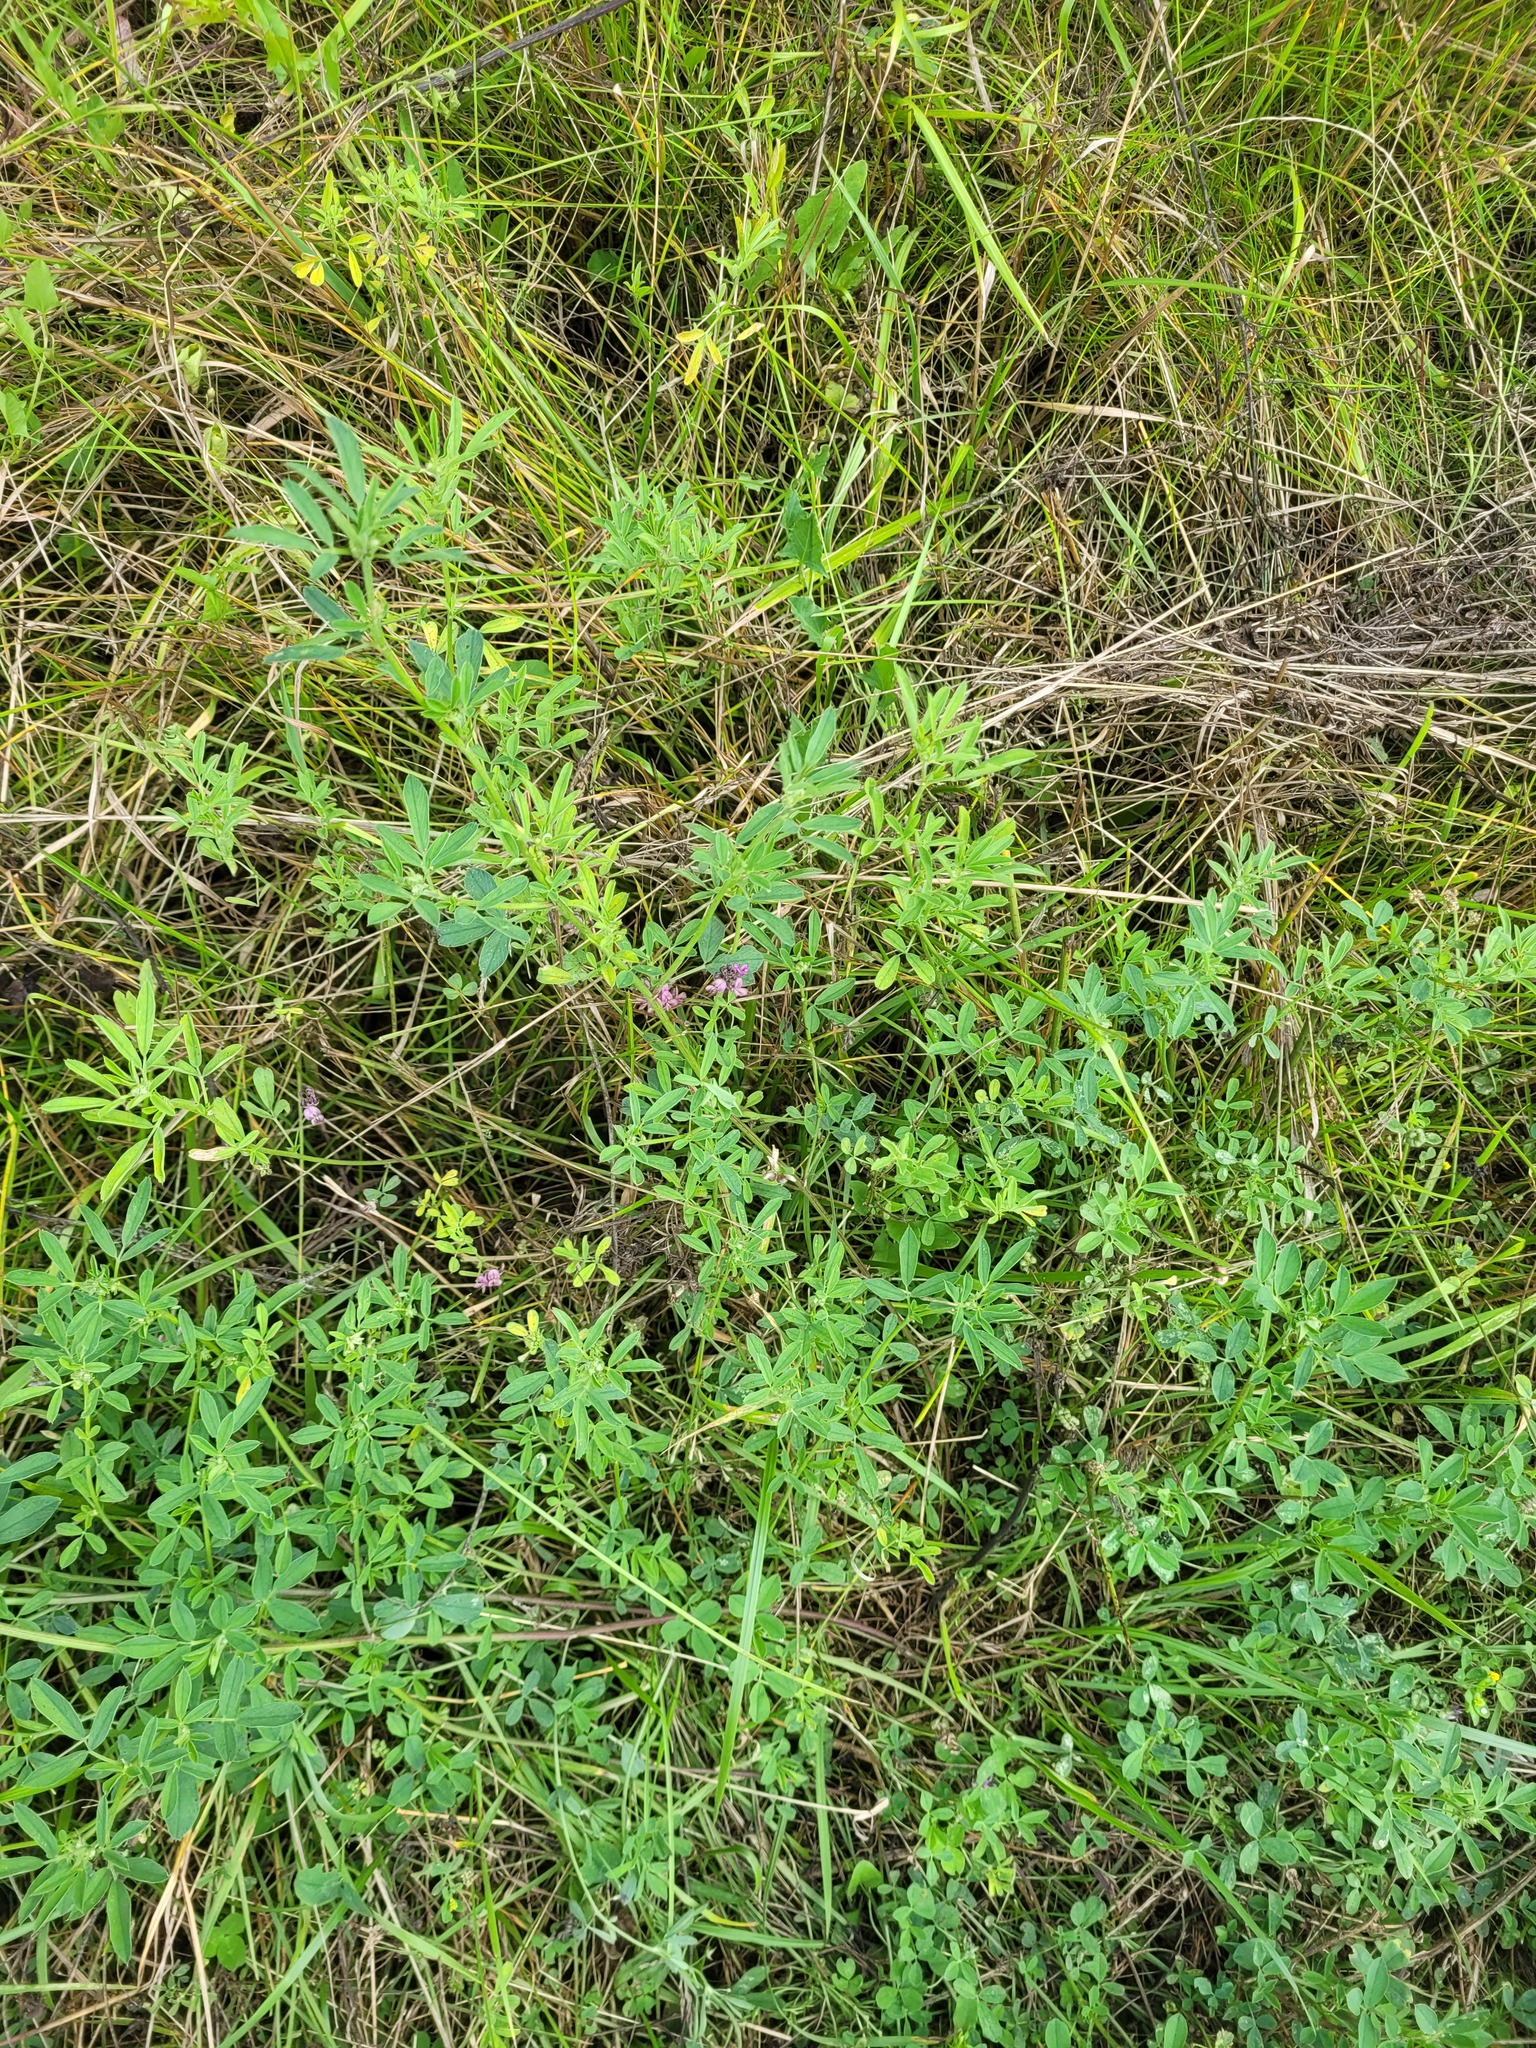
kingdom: Plantae
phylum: Tracheophyta
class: Magnoliopsida
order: Fabales
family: Fabaceae
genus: Medicago
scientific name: Medicago varia
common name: Sand lucerne
